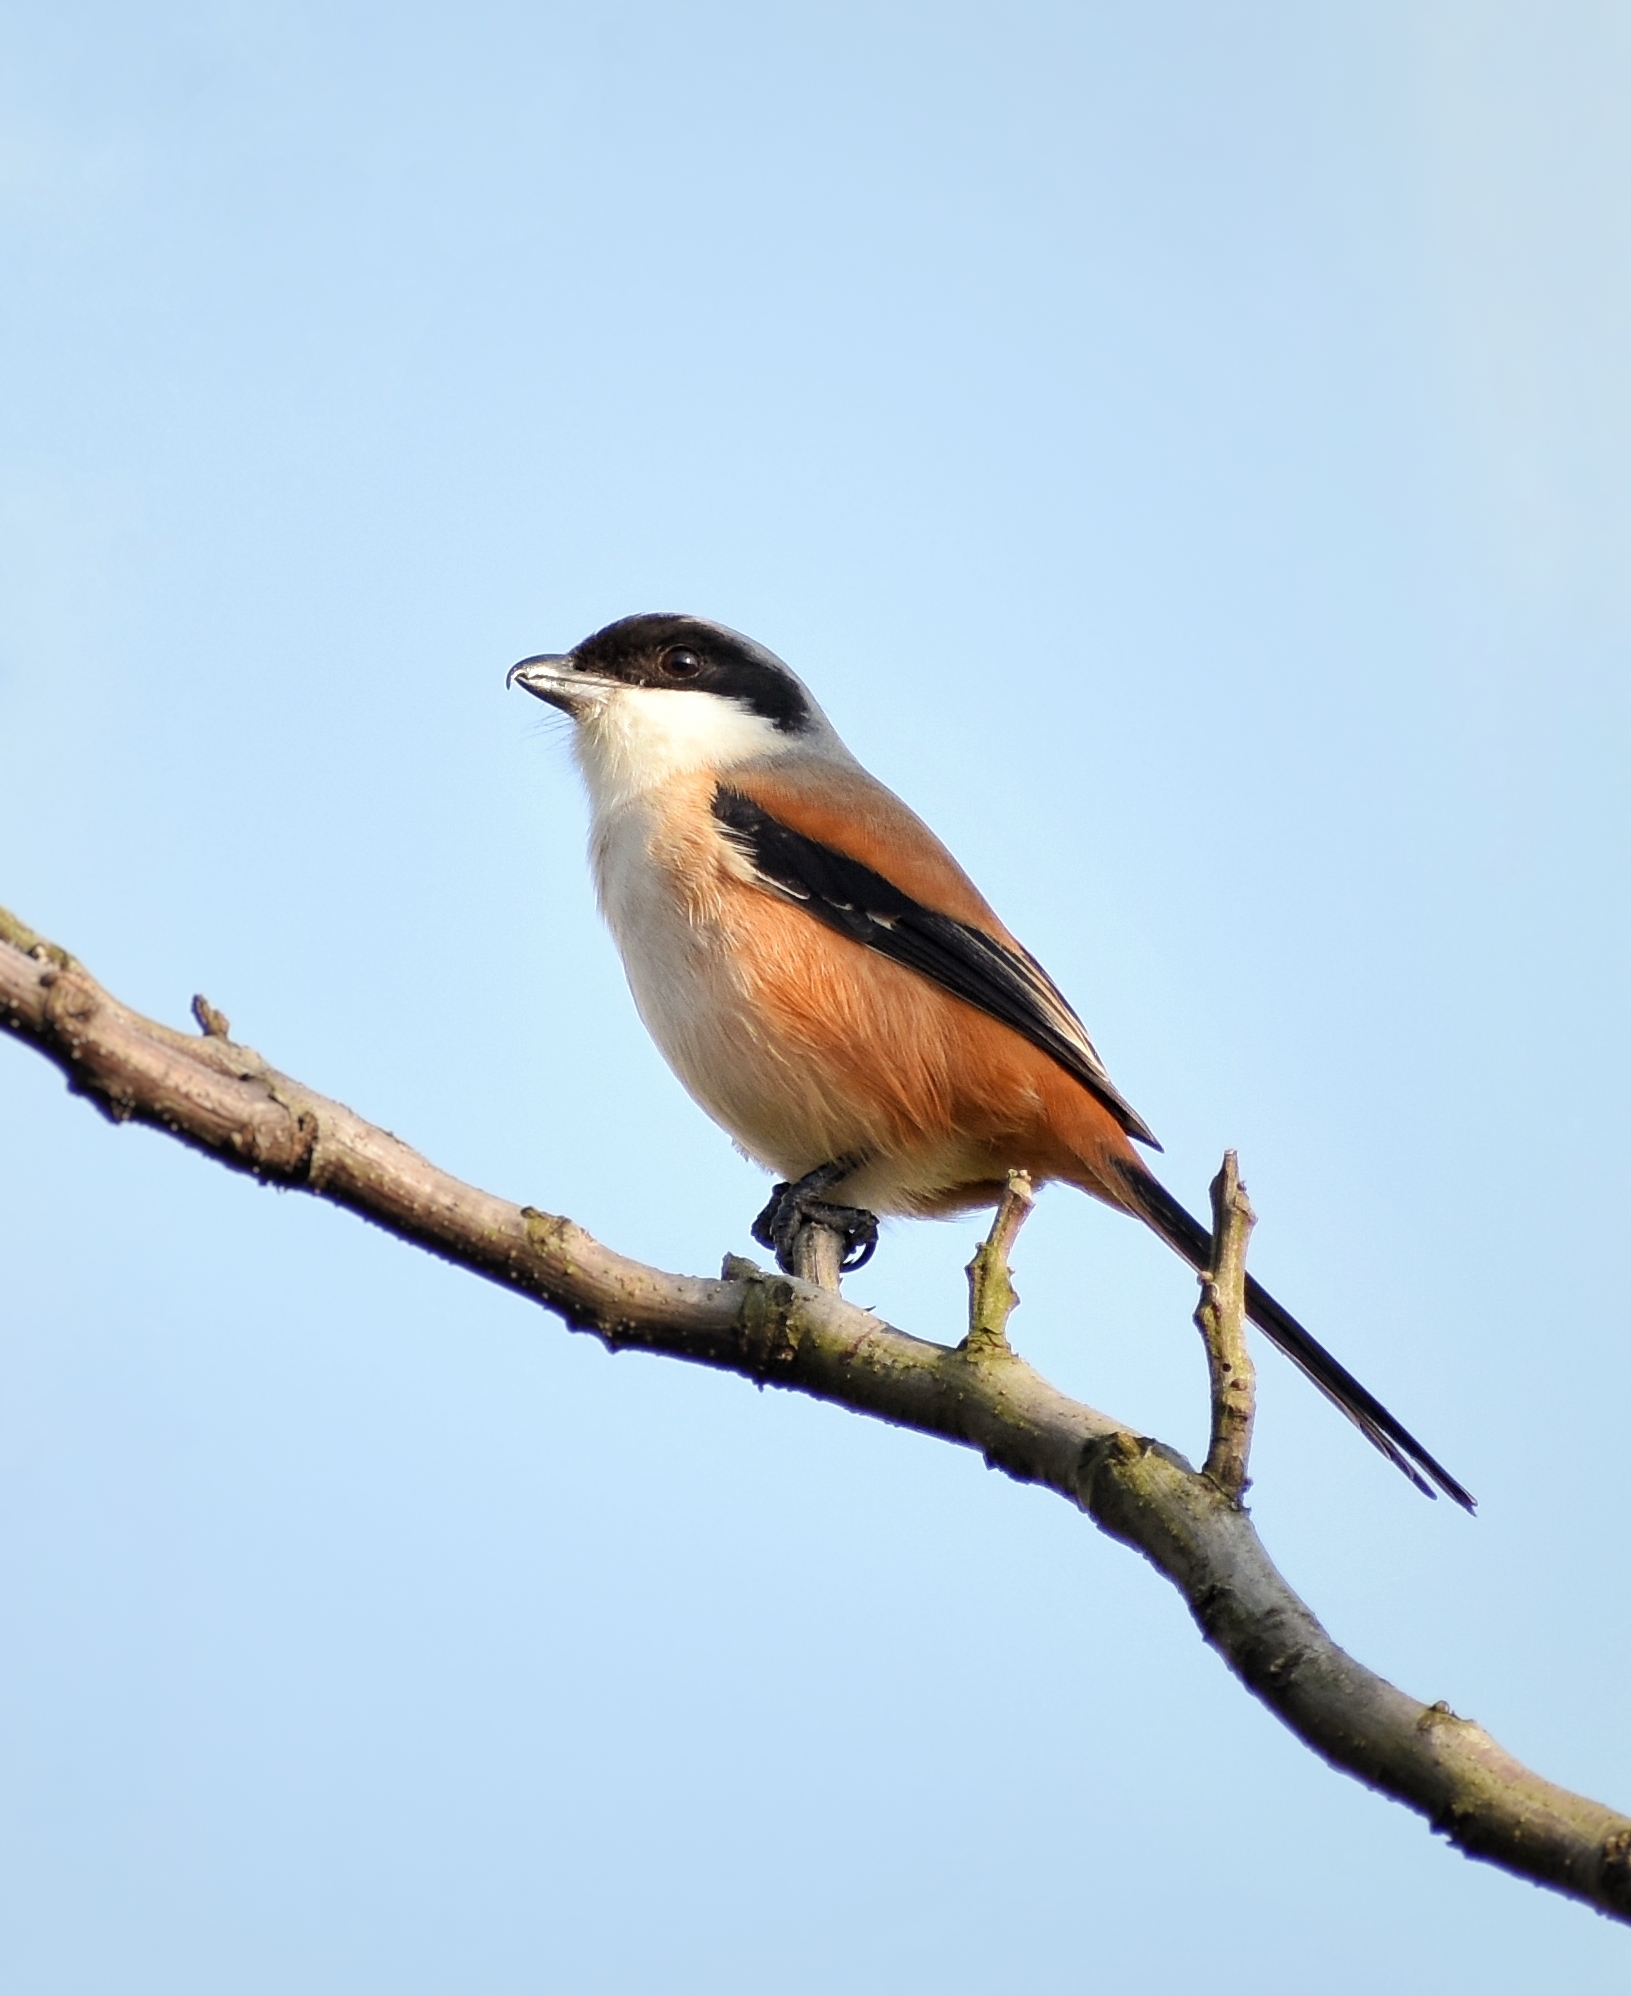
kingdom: Animalia
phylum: Chordata
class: Aves
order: Passeriformes
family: Laniidae
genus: Lanius
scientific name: Lanius schach
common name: Long-tailed shrike
